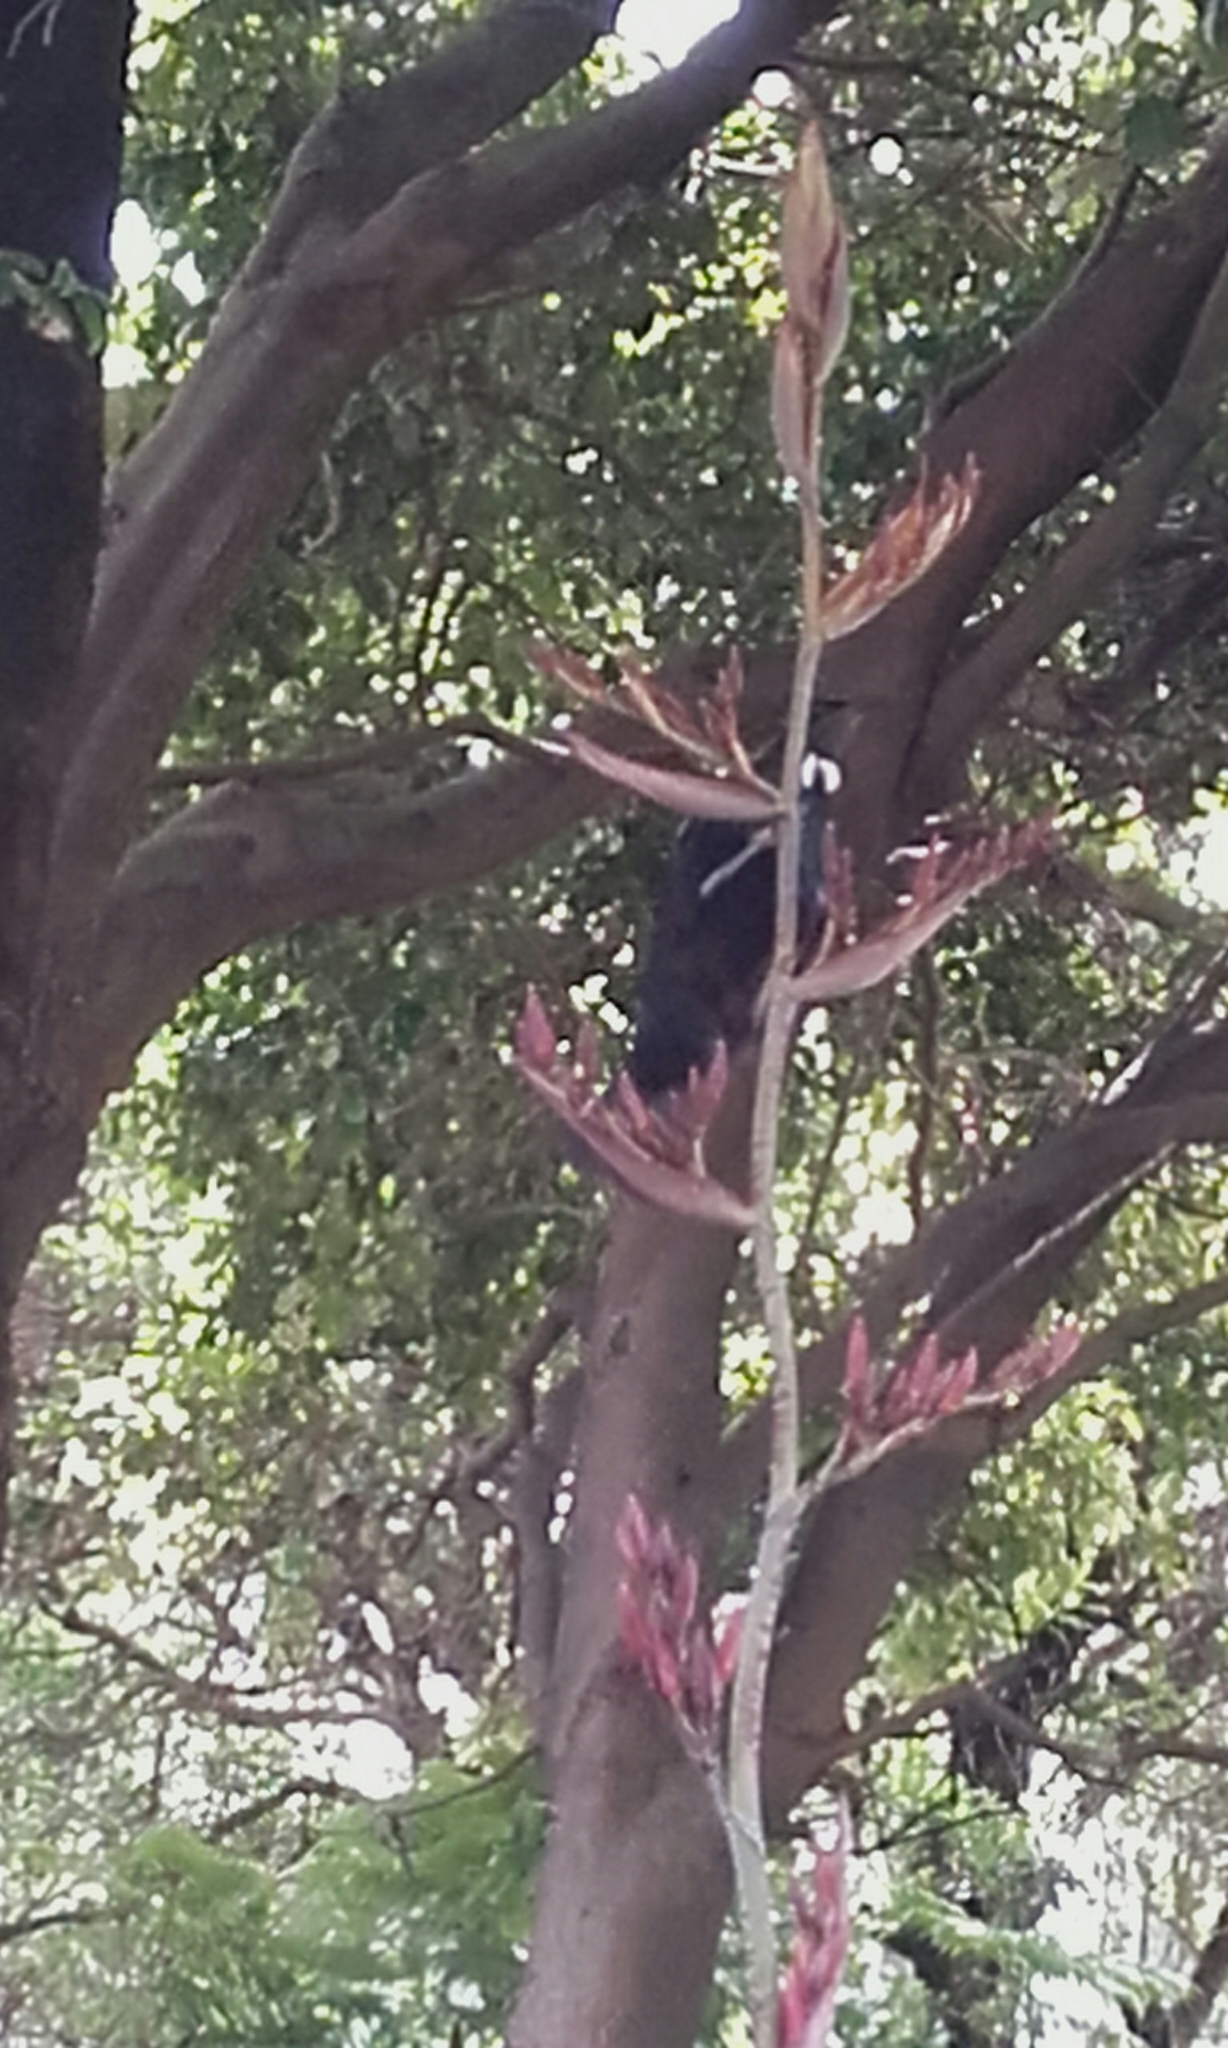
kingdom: Animalia
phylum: Chordata
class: Aves
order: Passeriformes
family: Meliphagidae
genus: Prosthemadera
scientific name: Prosthemadera novaeseelandiae
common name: Tui
